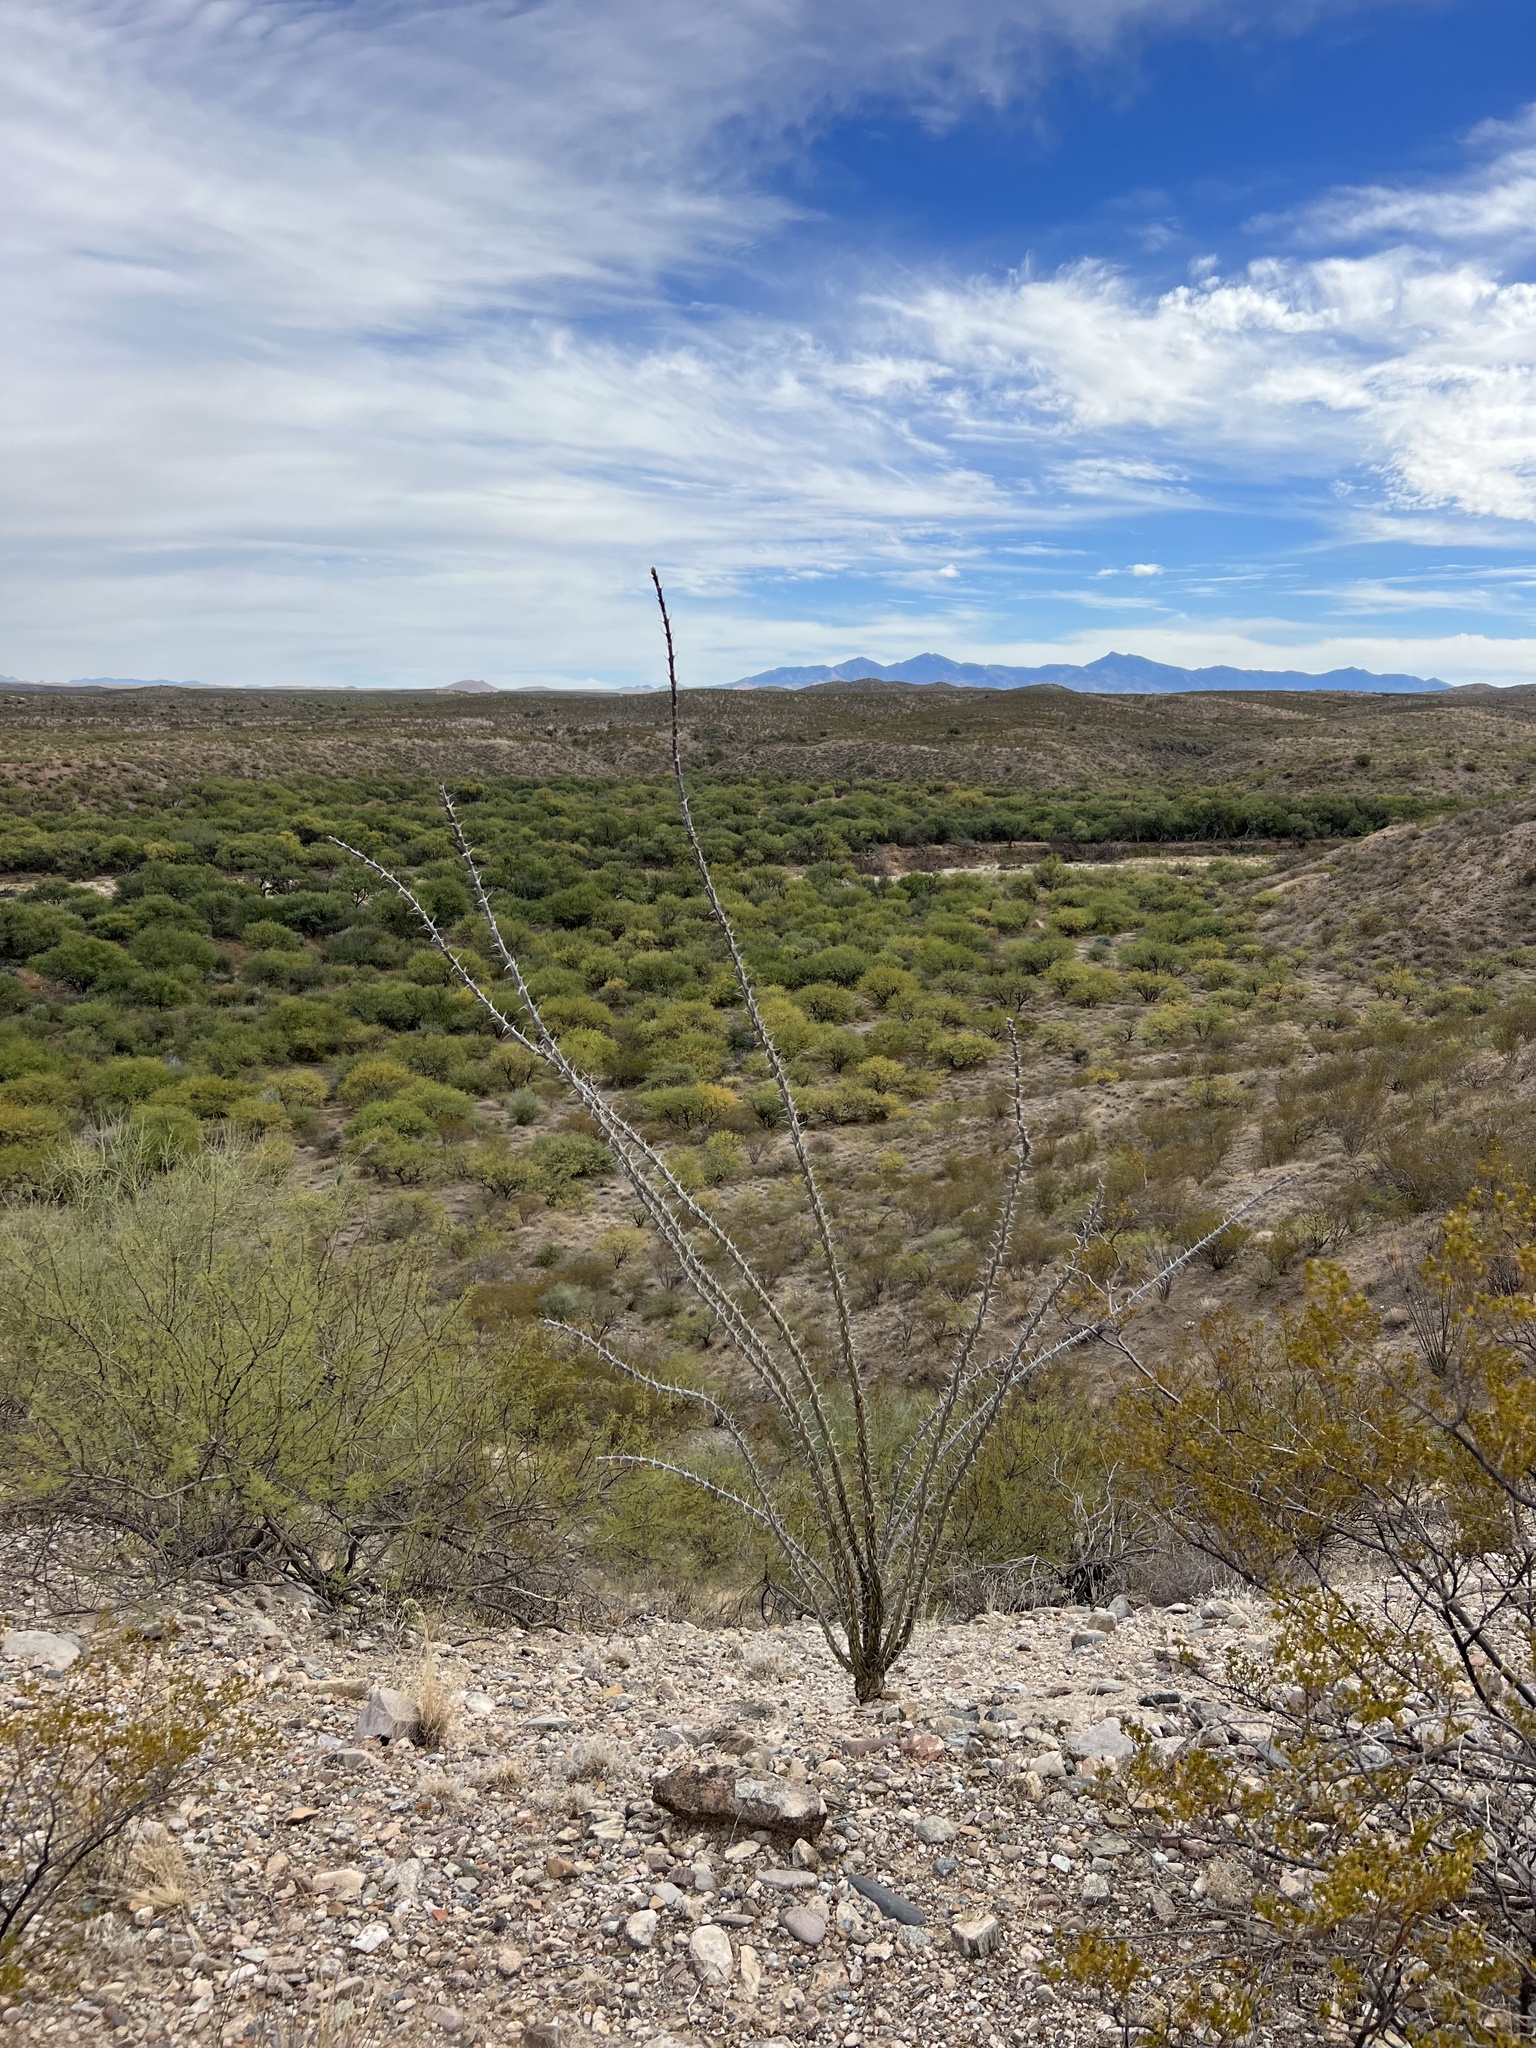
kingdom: Plantae
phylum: Tracheophyta
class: Magnoliopsida
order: Ericales
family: Fouquieriaceae
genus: Fouquieria
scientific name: Fouquieria splendens
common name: Vine-cactus
